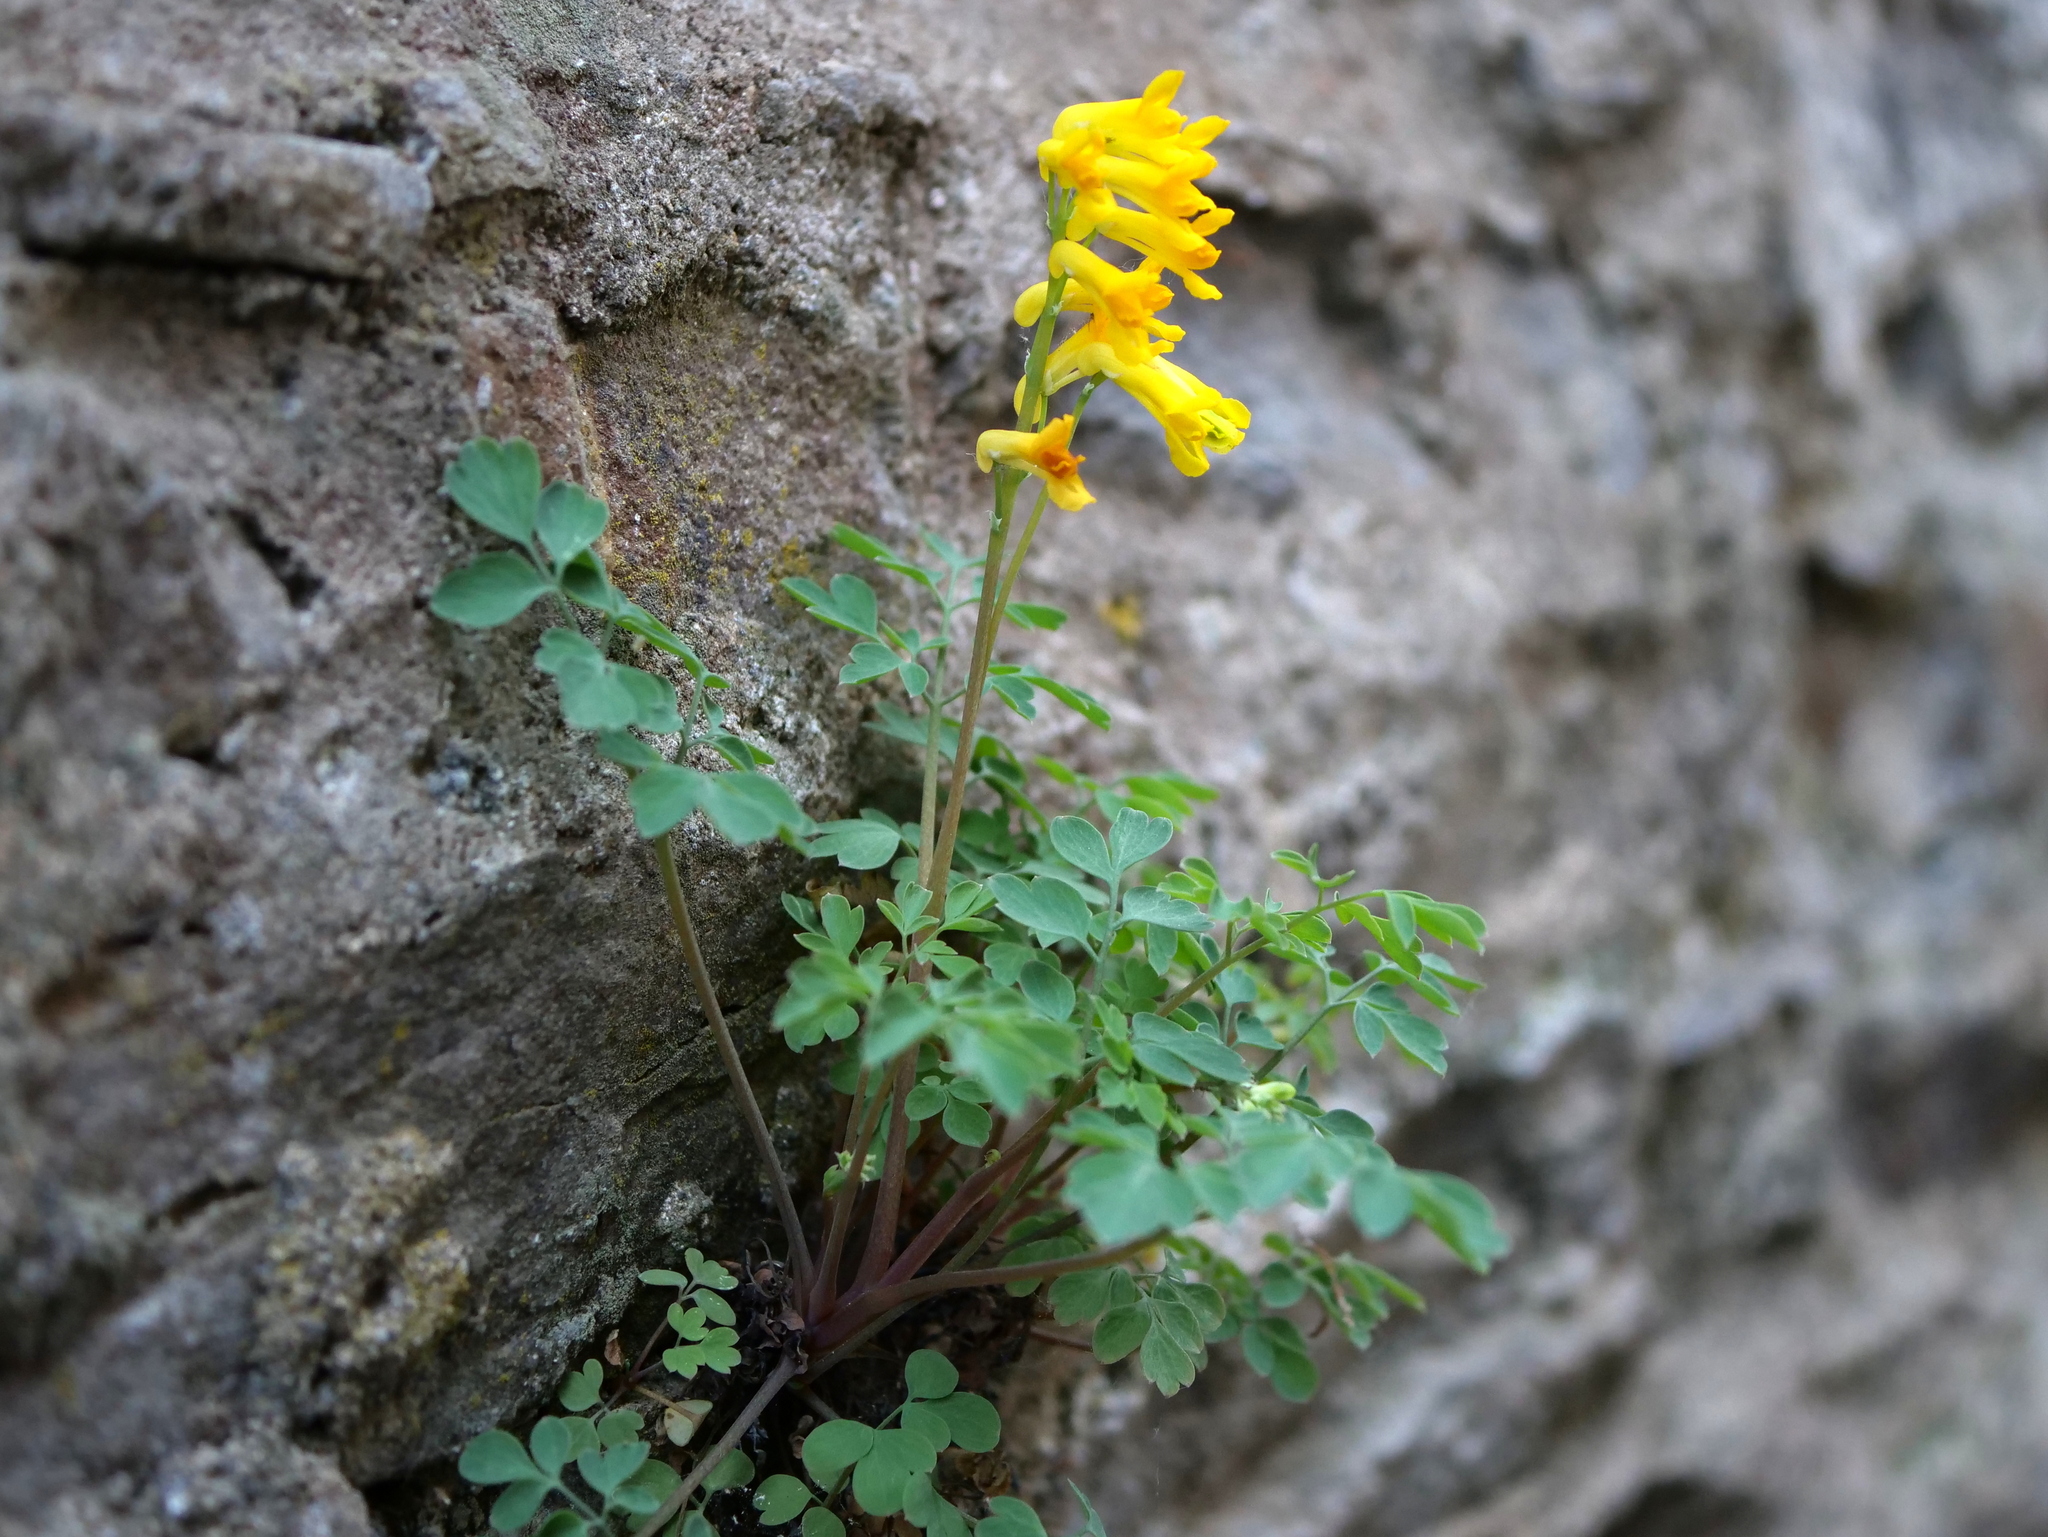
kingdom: Plantae
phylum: Tracheophyta
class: Magnoliopsida
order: Ranunculales
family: Papaveraceae
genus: Pseudofumaria
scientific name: Pseudofumaria lutea
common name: Yellow corydalis
